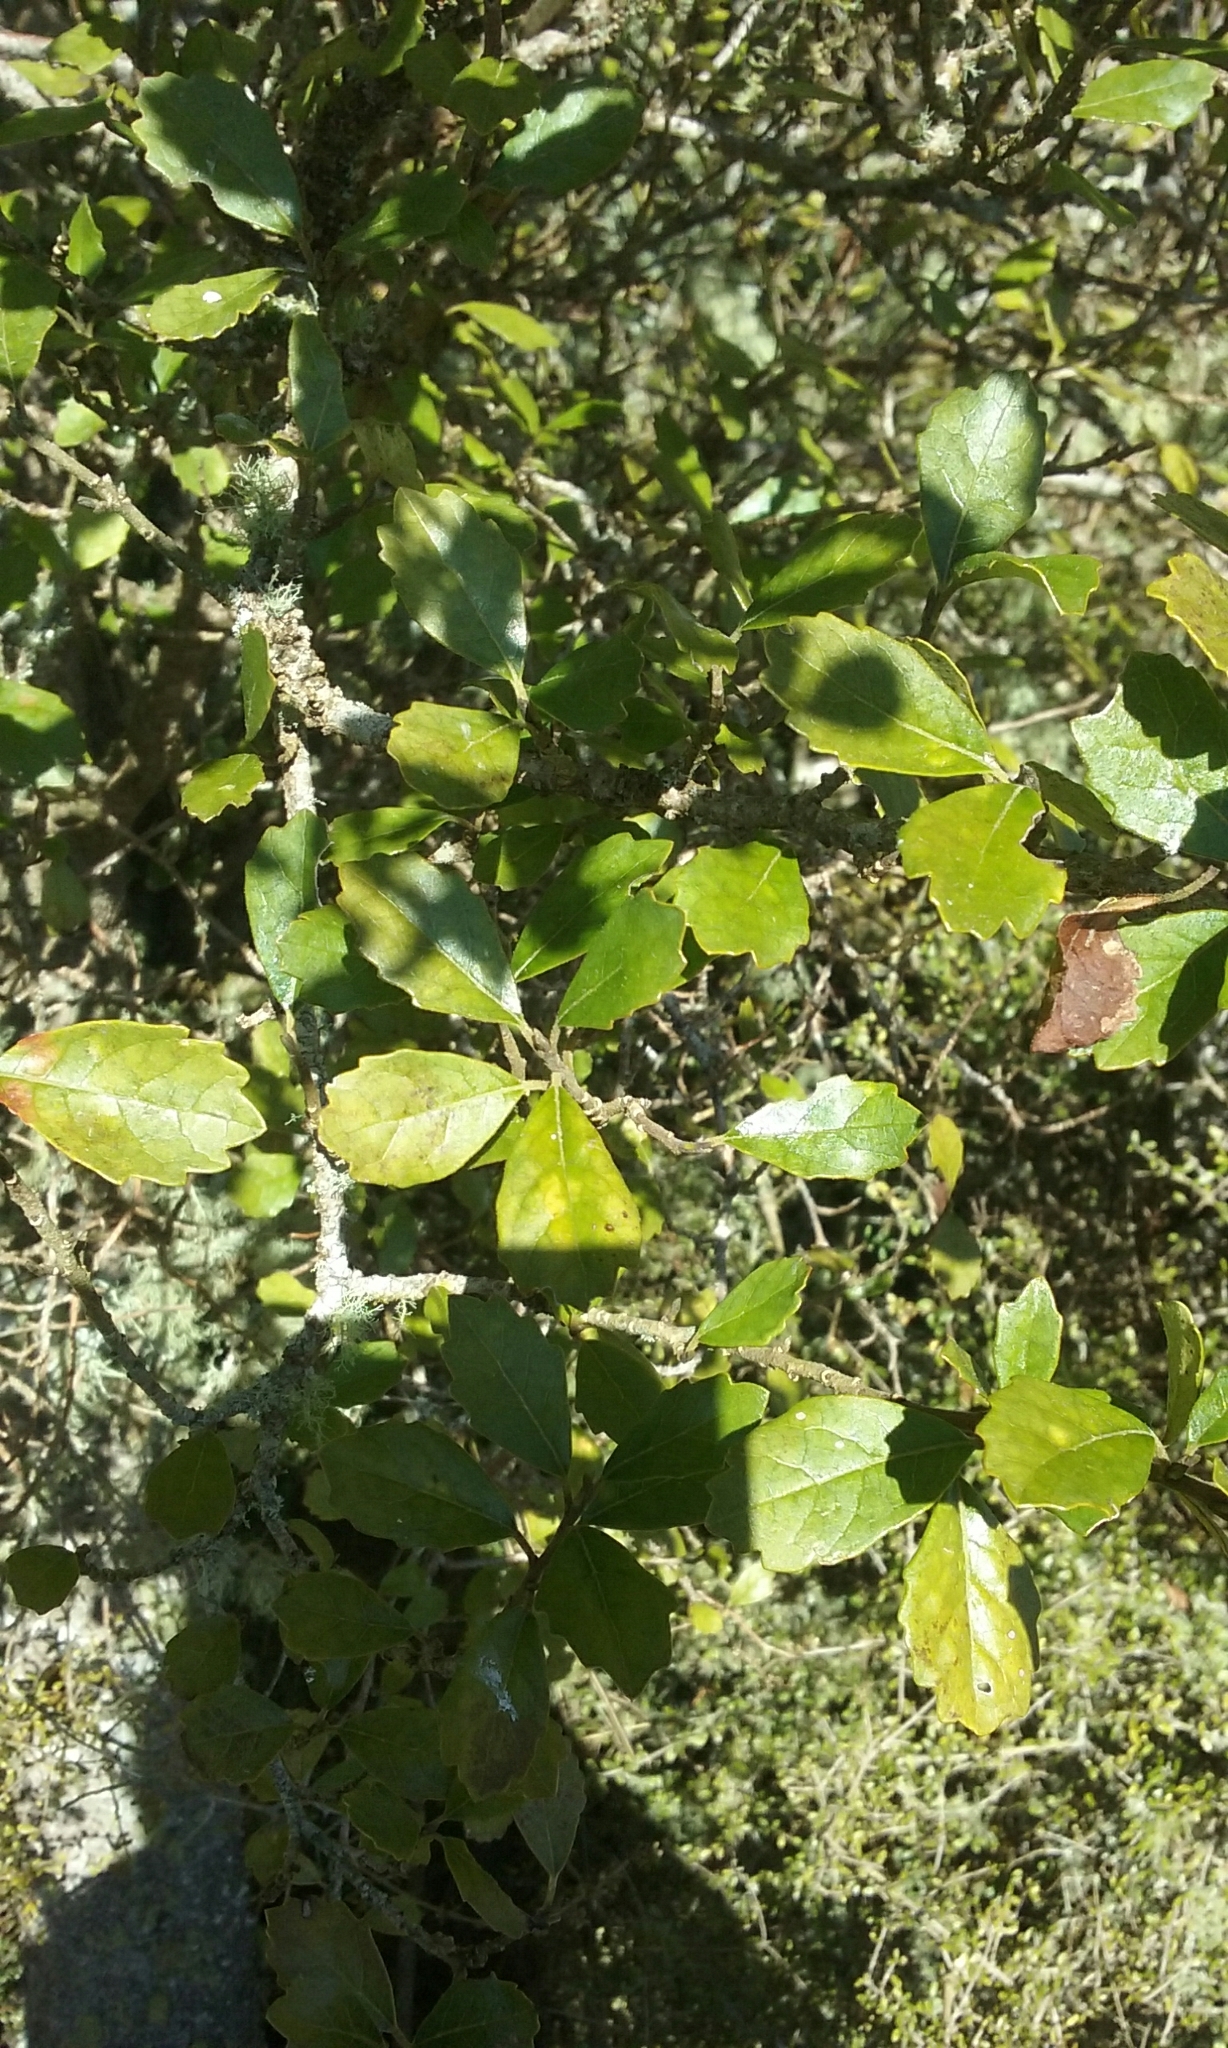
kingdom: Plantae
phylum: Tracheophyta
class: Magnoliopsida
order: Apiales
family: Pennantiaceae
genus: Pennantia
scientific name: Pennantia corymbosa
